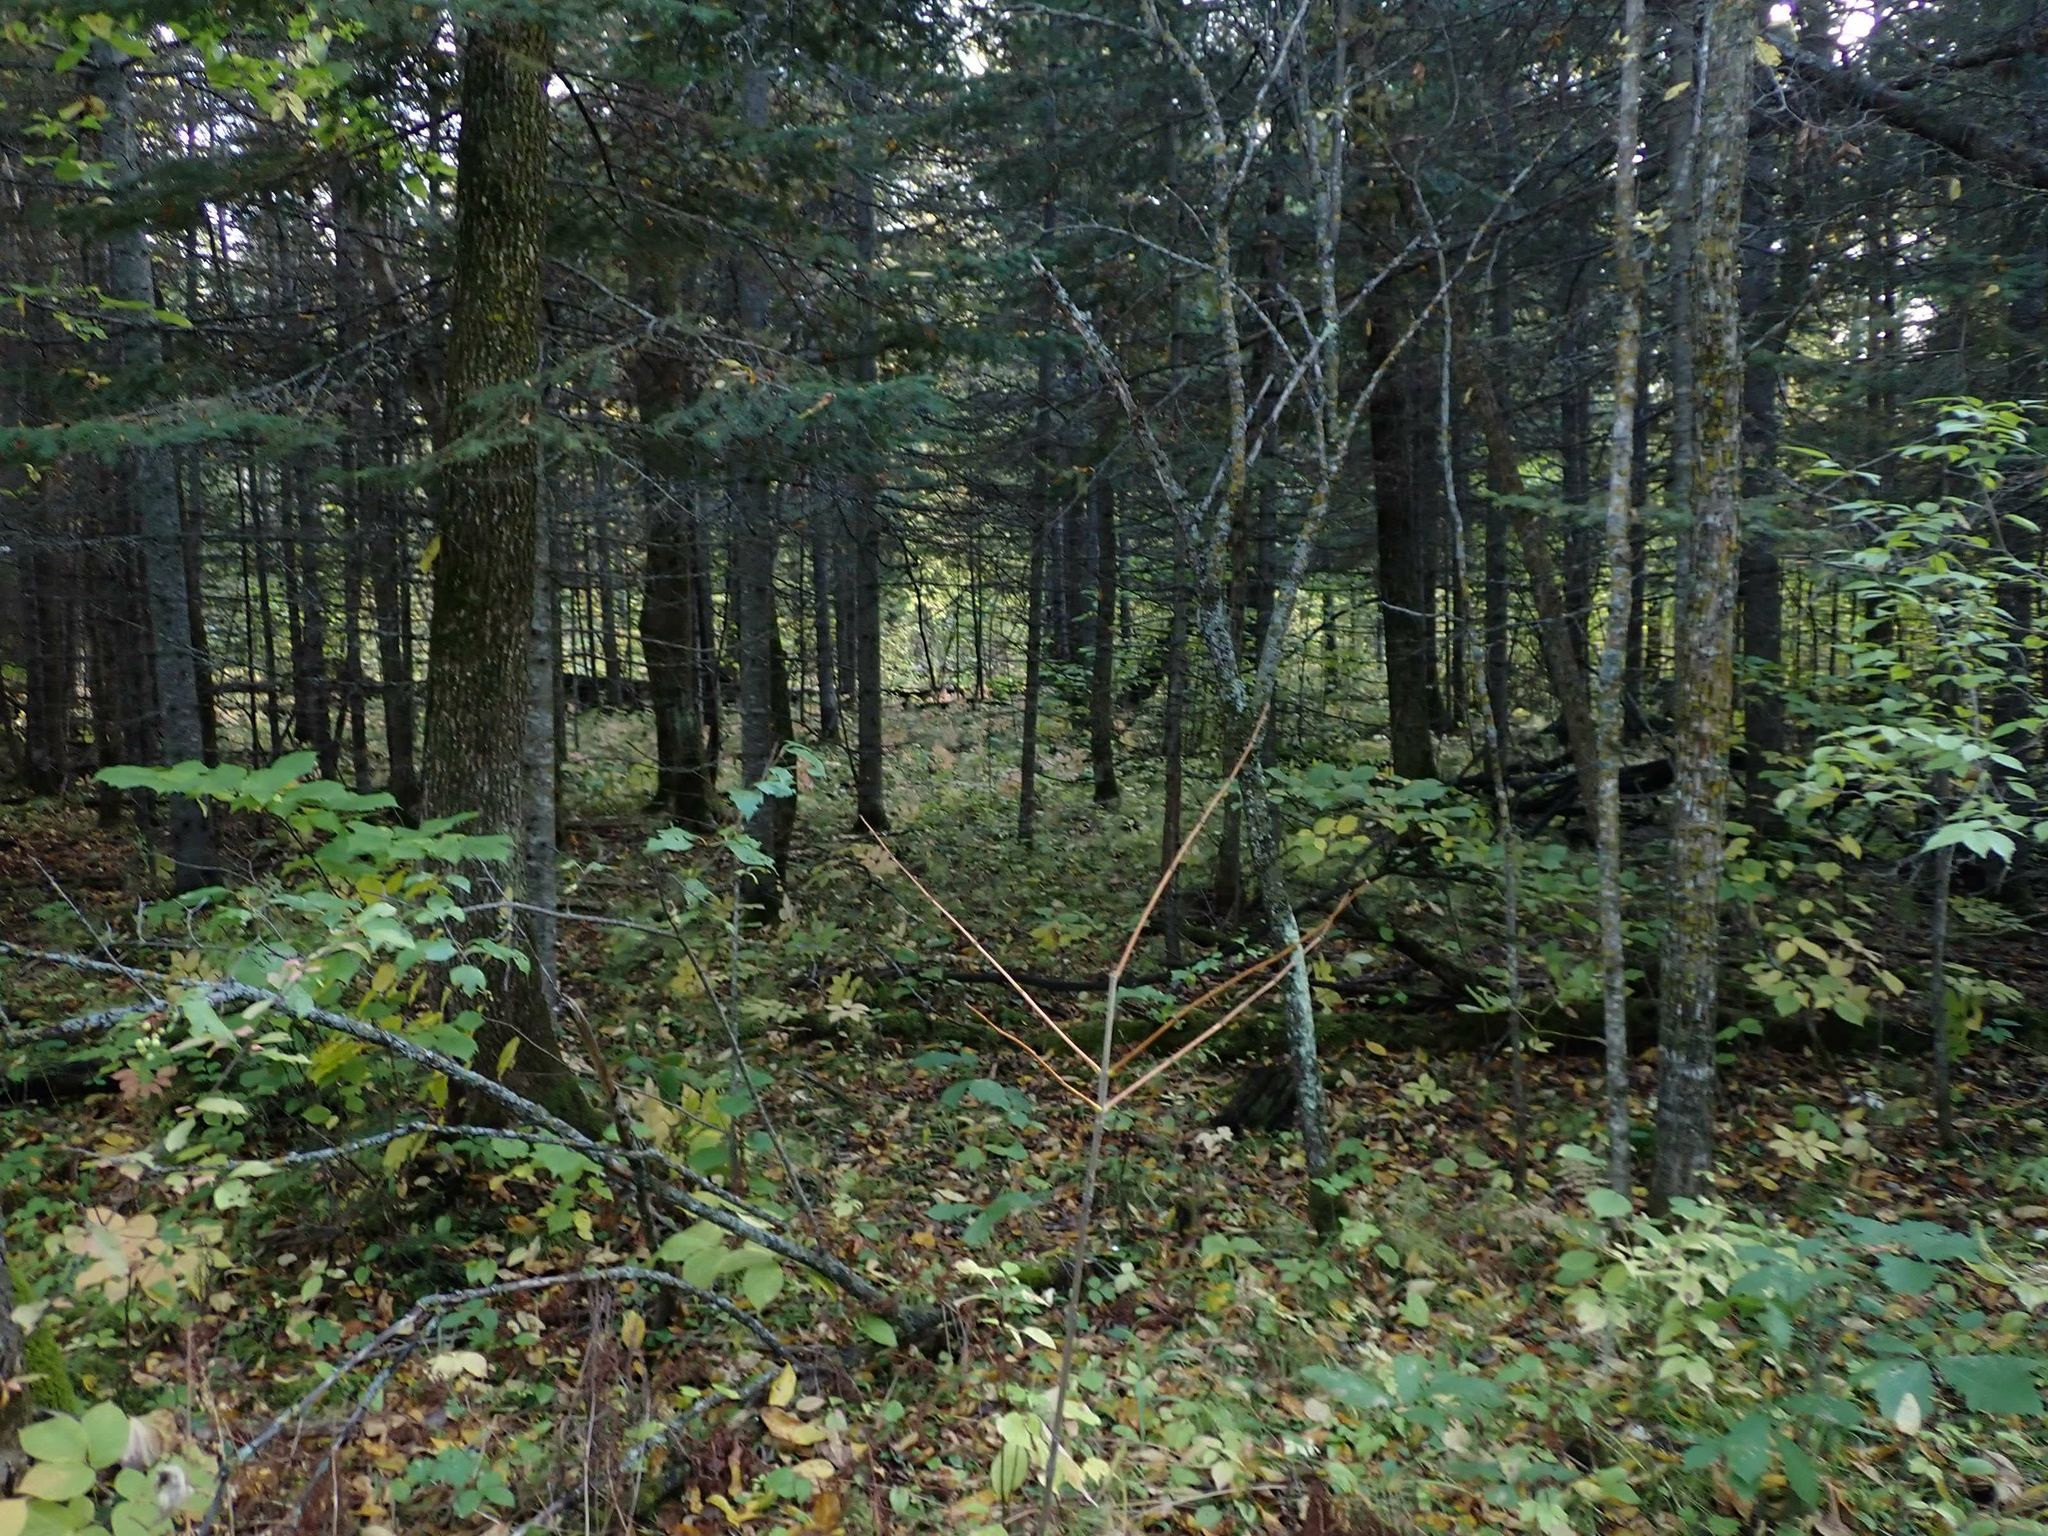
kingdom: Plantae
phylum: Tracheophyta
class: Pinopsida
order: Pinales
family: Pinaceae
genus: Abies
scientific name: Abies balsamea
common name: Balsam fir
